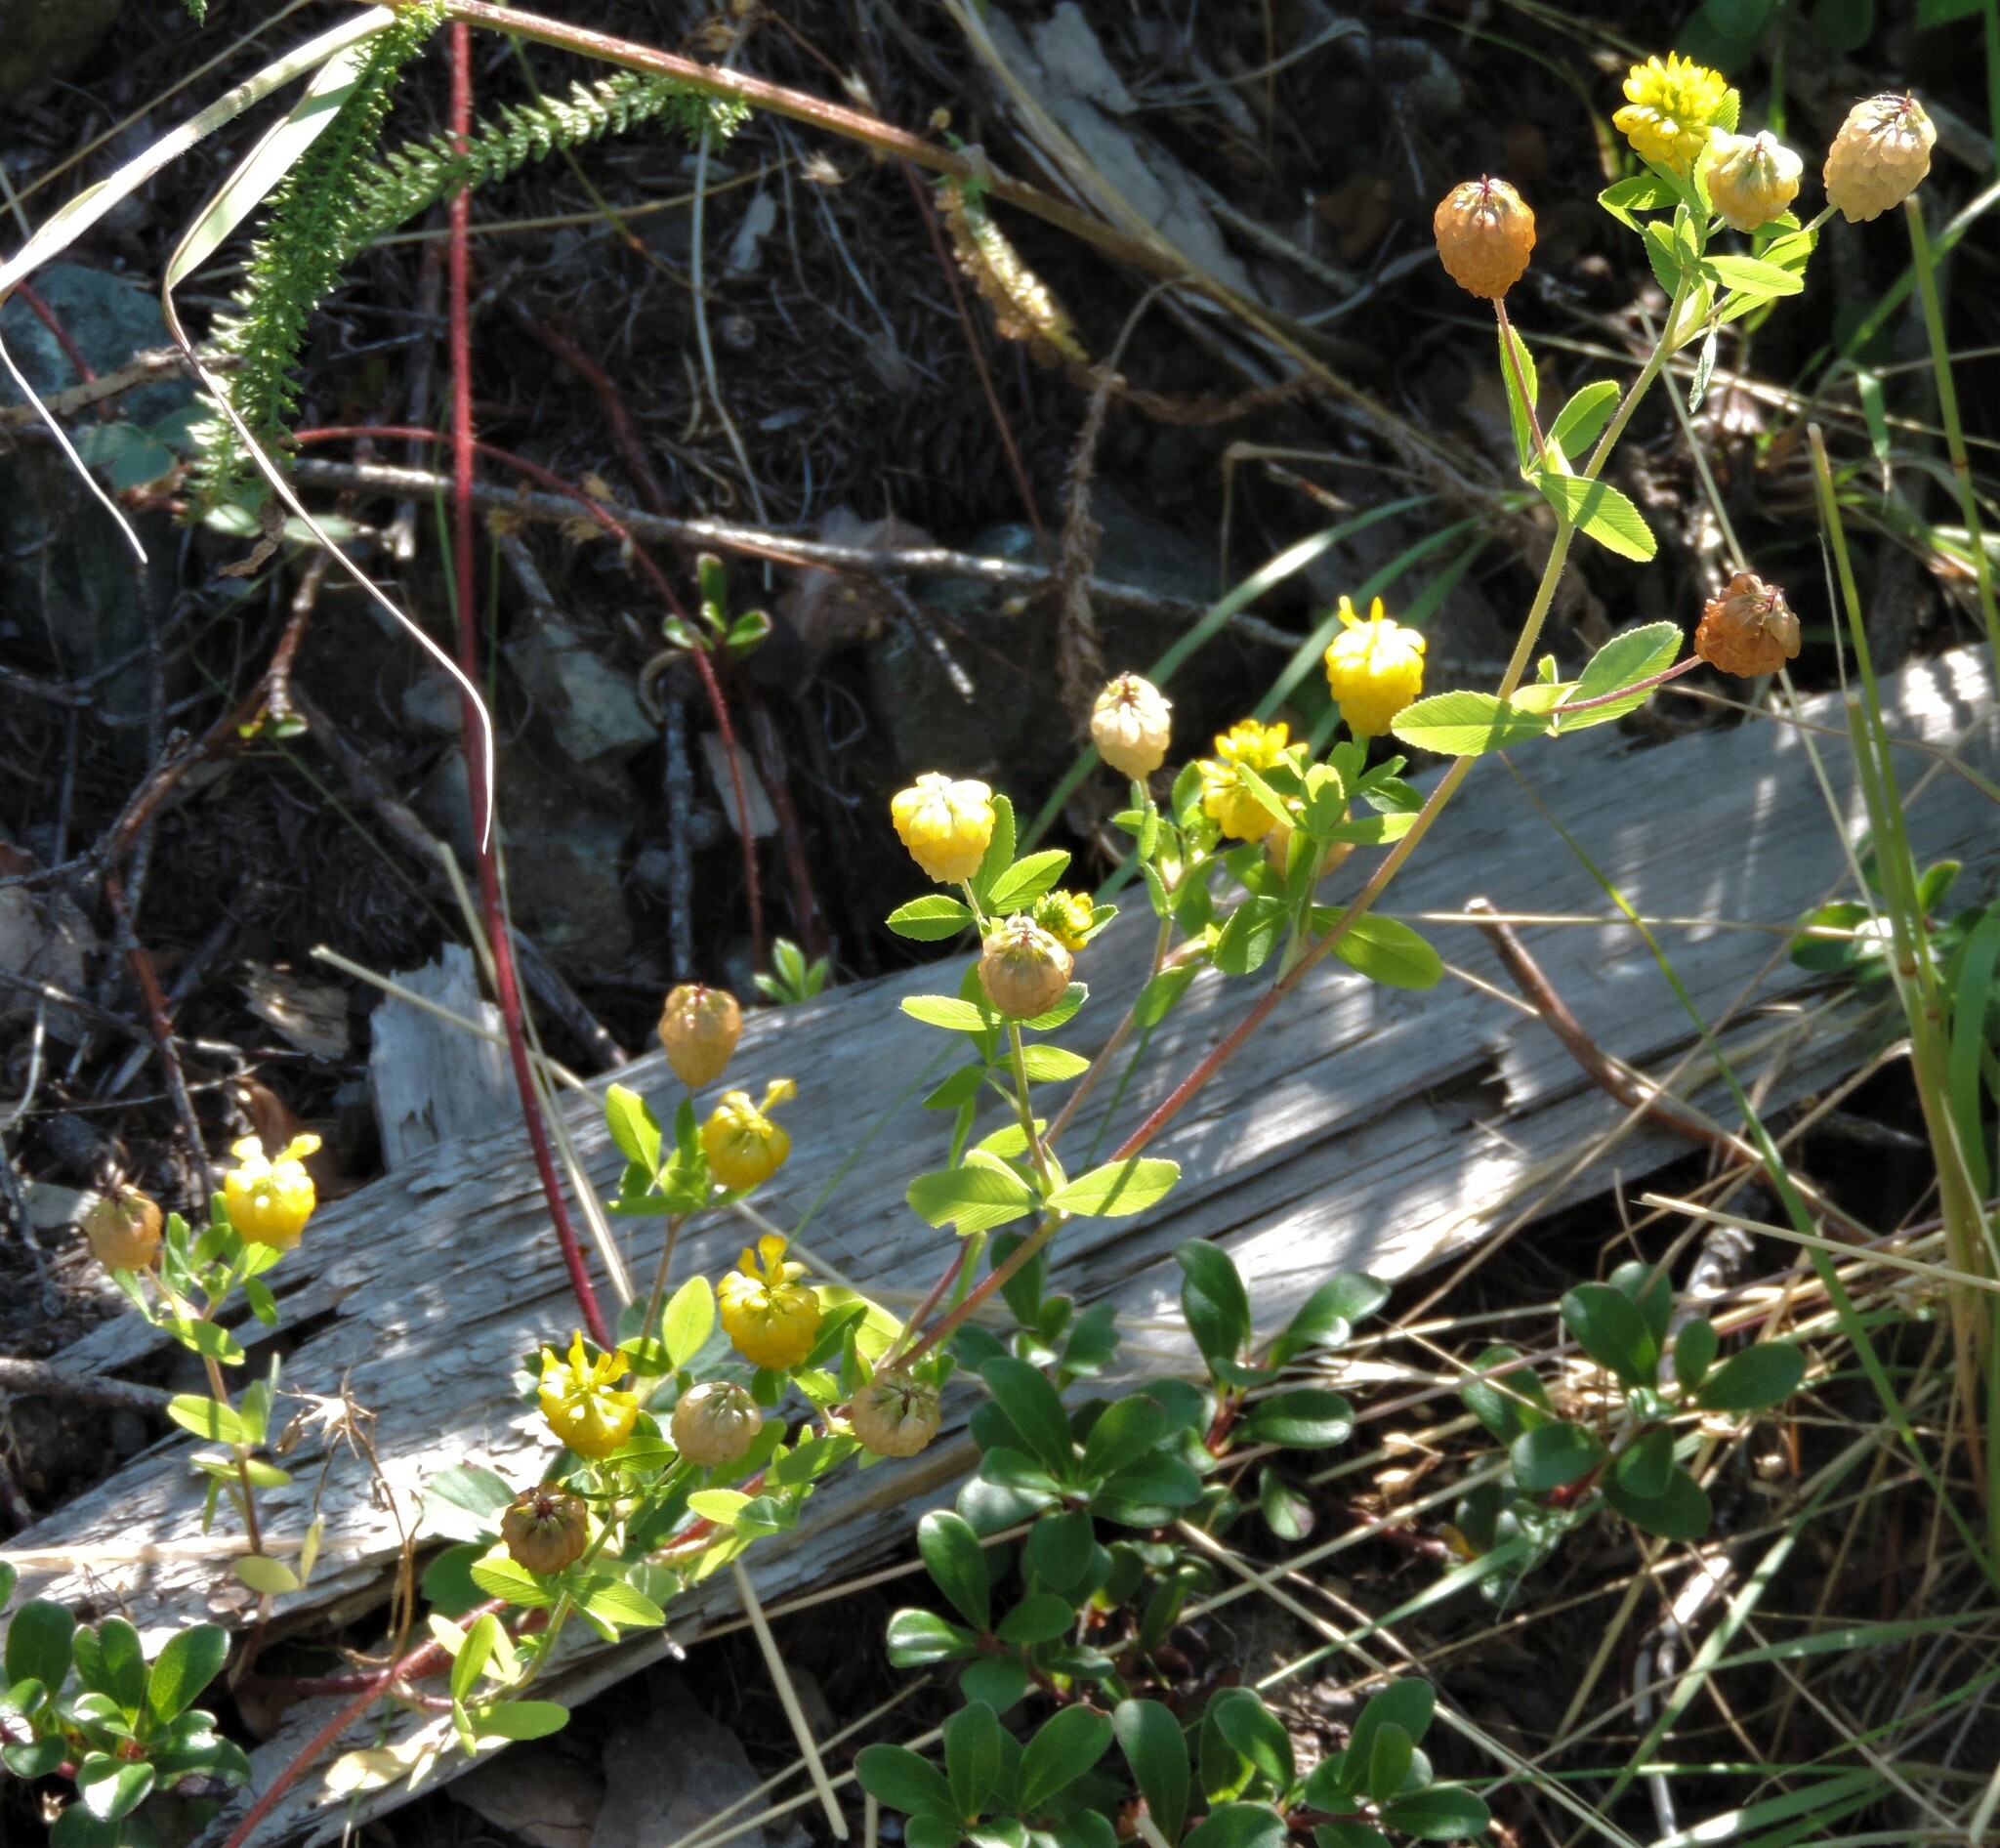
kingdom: Plantae
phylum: Tracheophyta
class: Magnoliopsida
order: Fabales
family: Fabaceae
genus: Trifolium
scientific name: Trifolium aureum
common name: Golden clover
